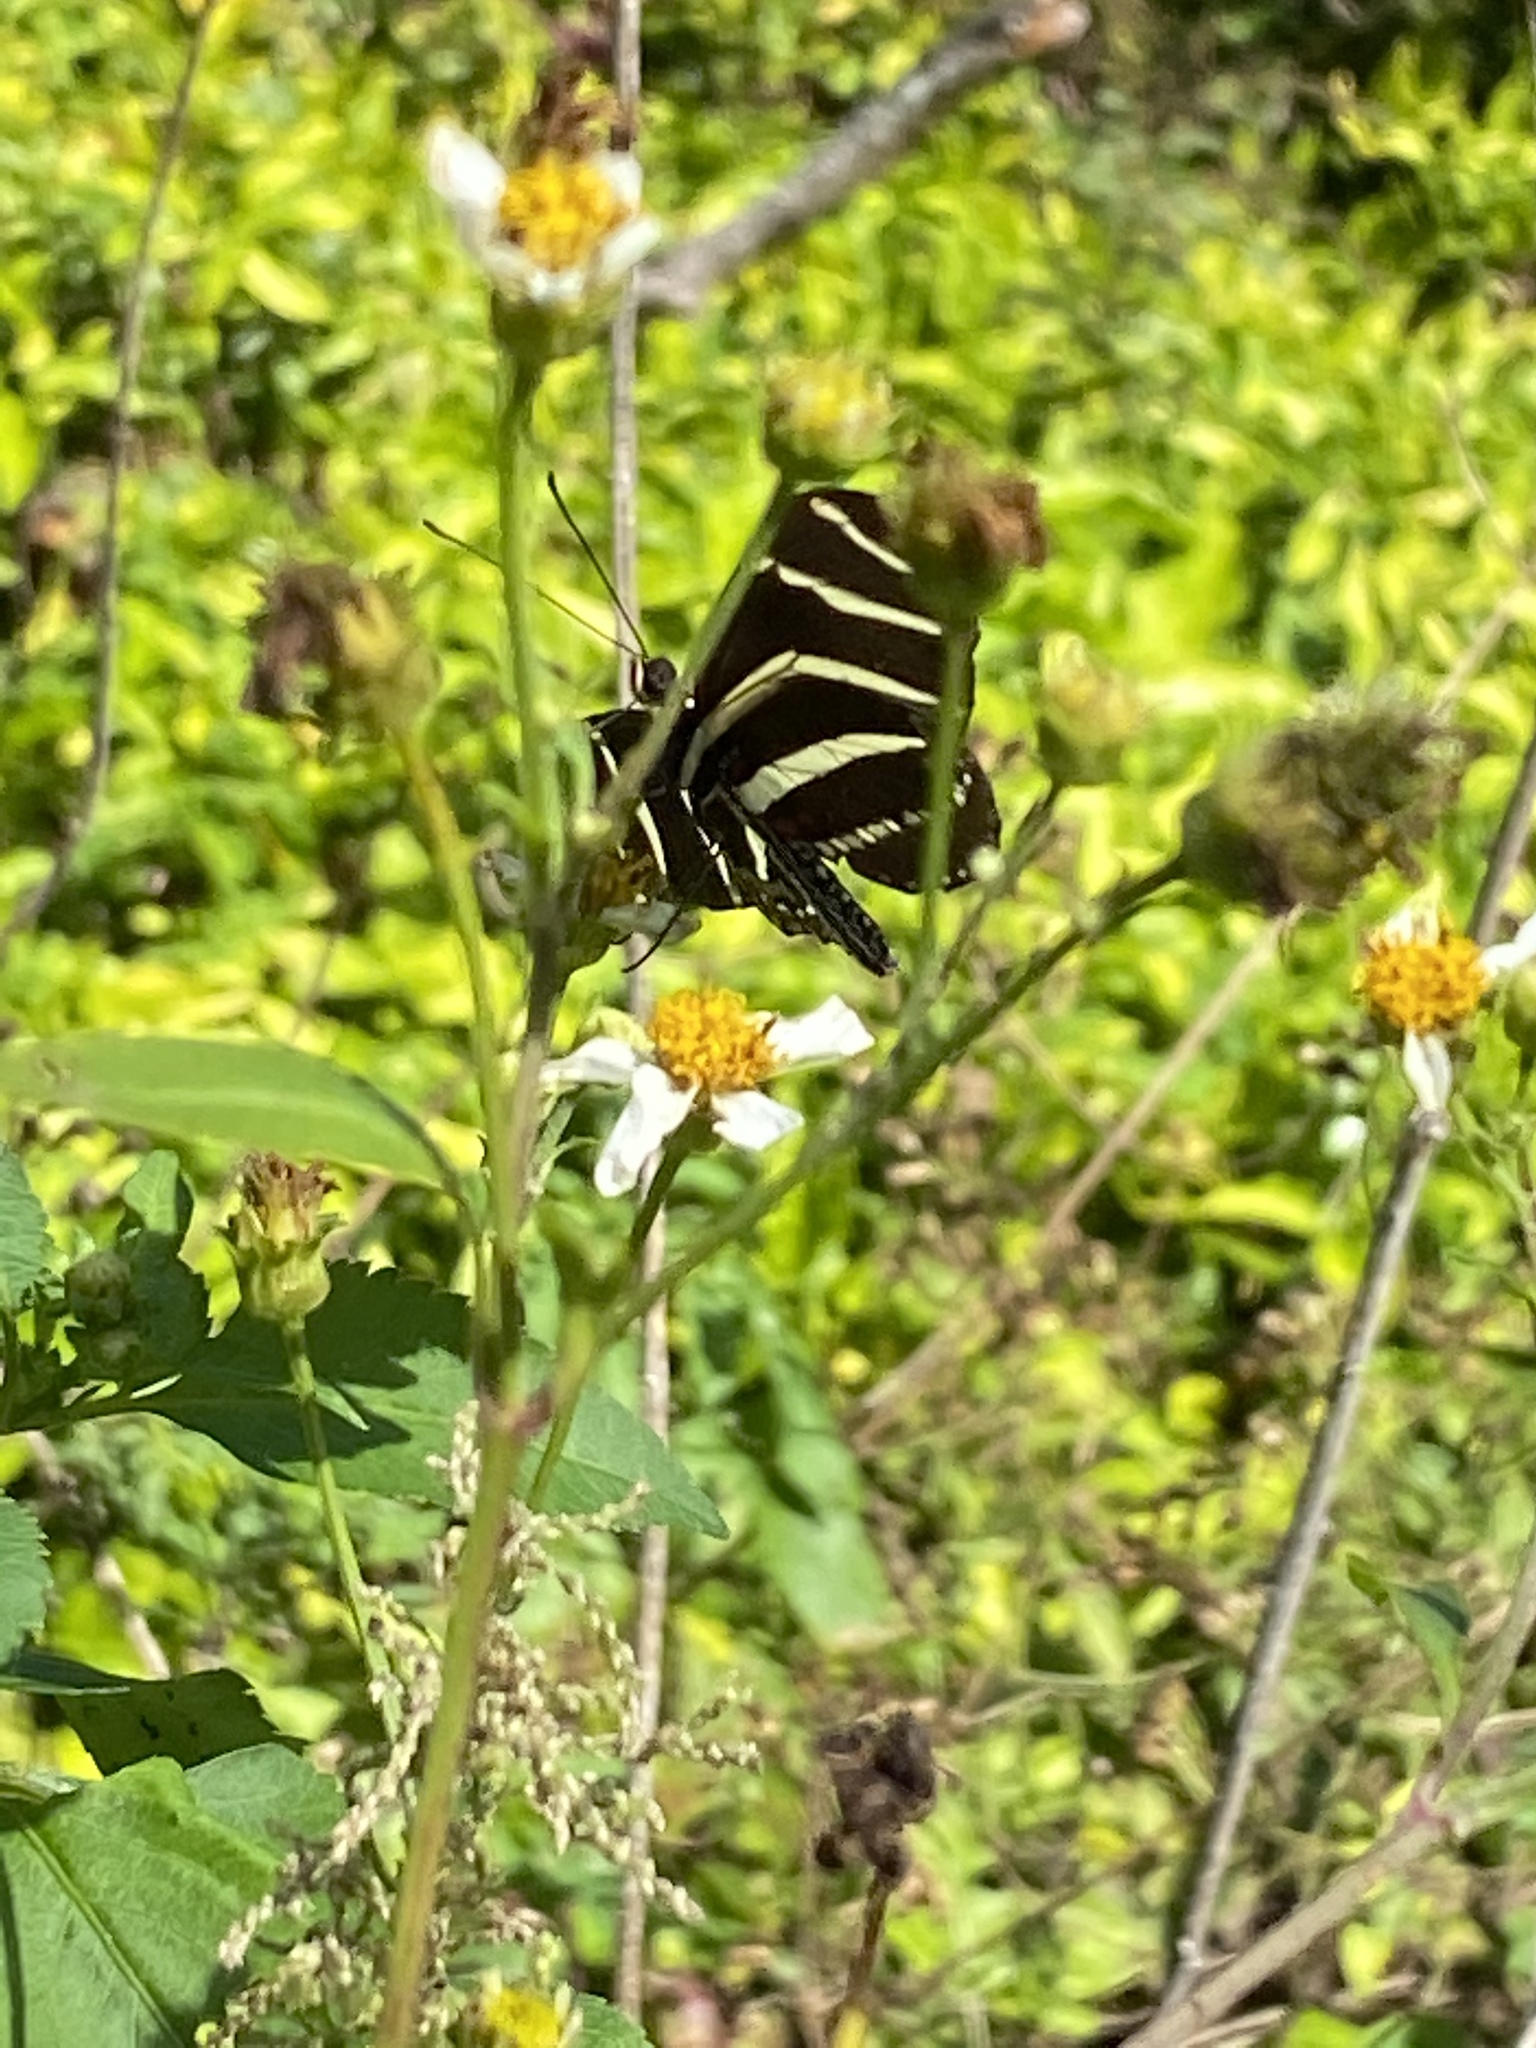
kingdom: Animalia
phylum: Arthropoda
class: Insecta
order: Lepidoptera
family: Nymphalidae
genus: Heliconius
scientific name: Heliconius charithonia
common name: Zebra long wing
